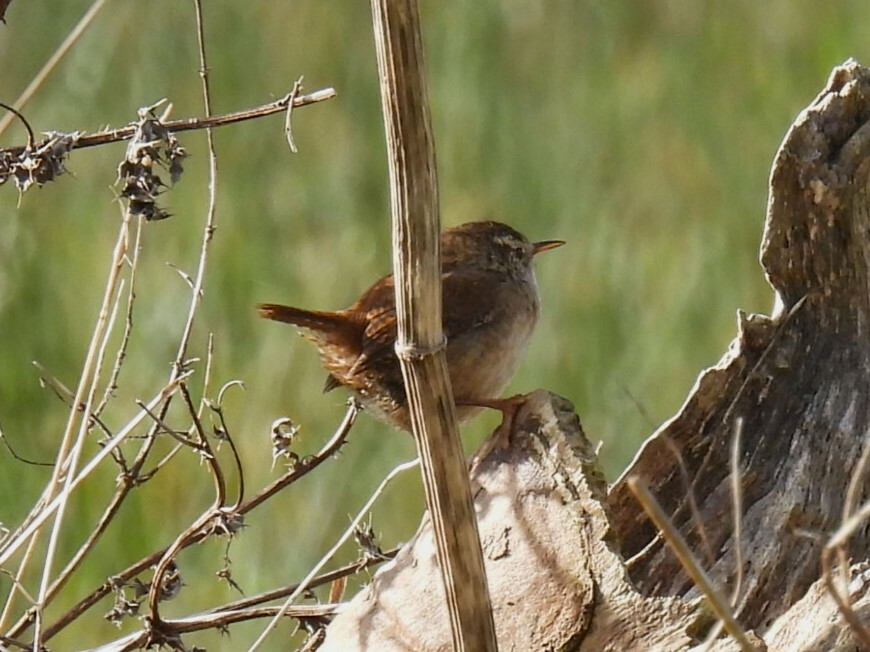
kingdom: Animalia
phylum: Chordata
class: Aves
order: Passeriformes
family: Troglodytidae
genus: Troglodytes
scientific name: Troglodytes troglodytes
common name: Eurasian wren
